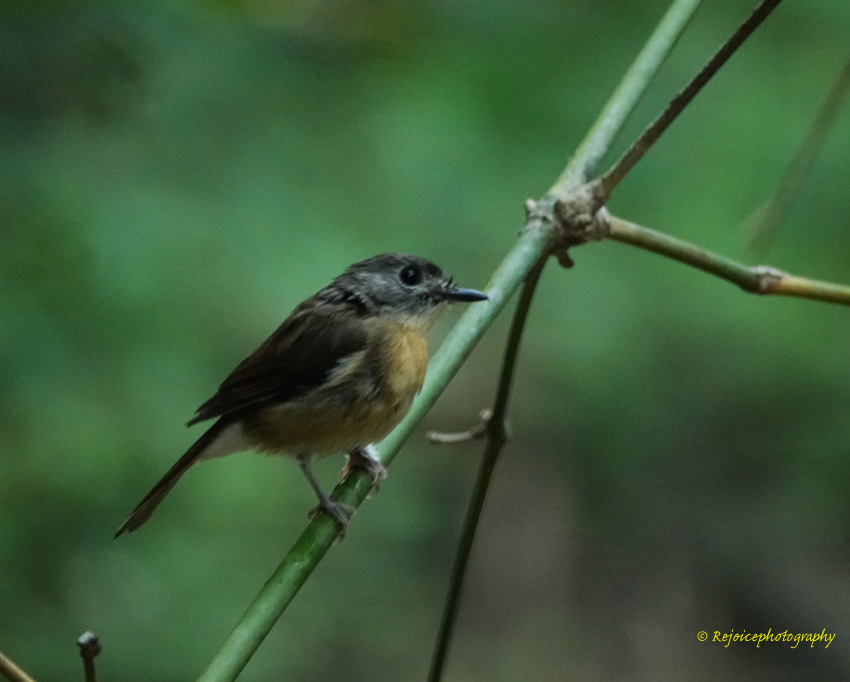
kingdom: Animalia
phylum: Chordata
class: Aves
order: Passeriformes
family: Muscicapidae
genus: Cyornis
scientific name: Cyornis poliogenys
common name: Pale-chinned blue flycatcher
